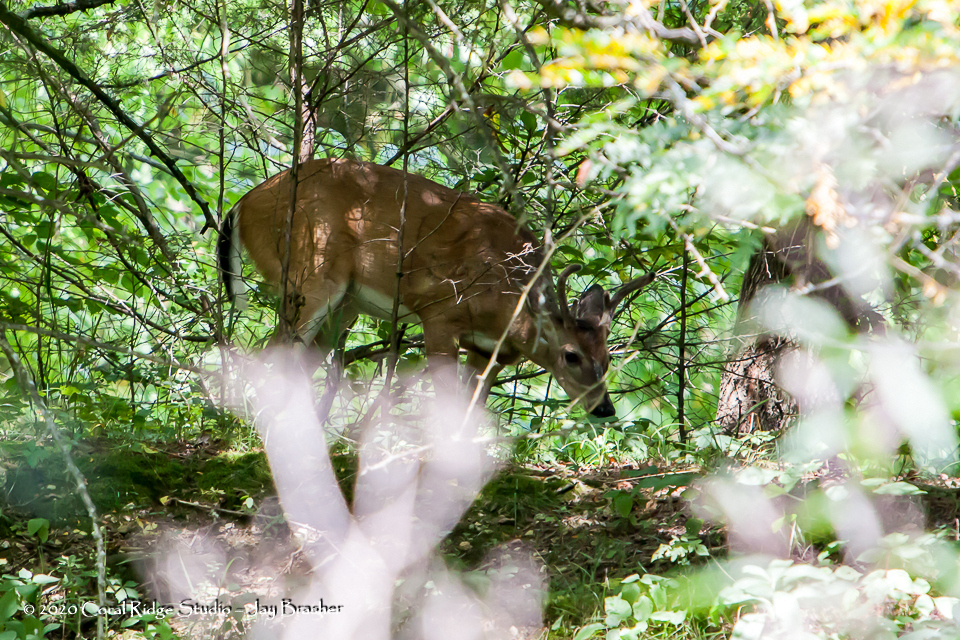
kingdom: Animalia
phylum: Chordata
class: Mammalia
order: Artiodactyla
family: Cervidae
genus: Odocoileus
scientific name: Odocoileus virginianus
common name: White-tailed deer
